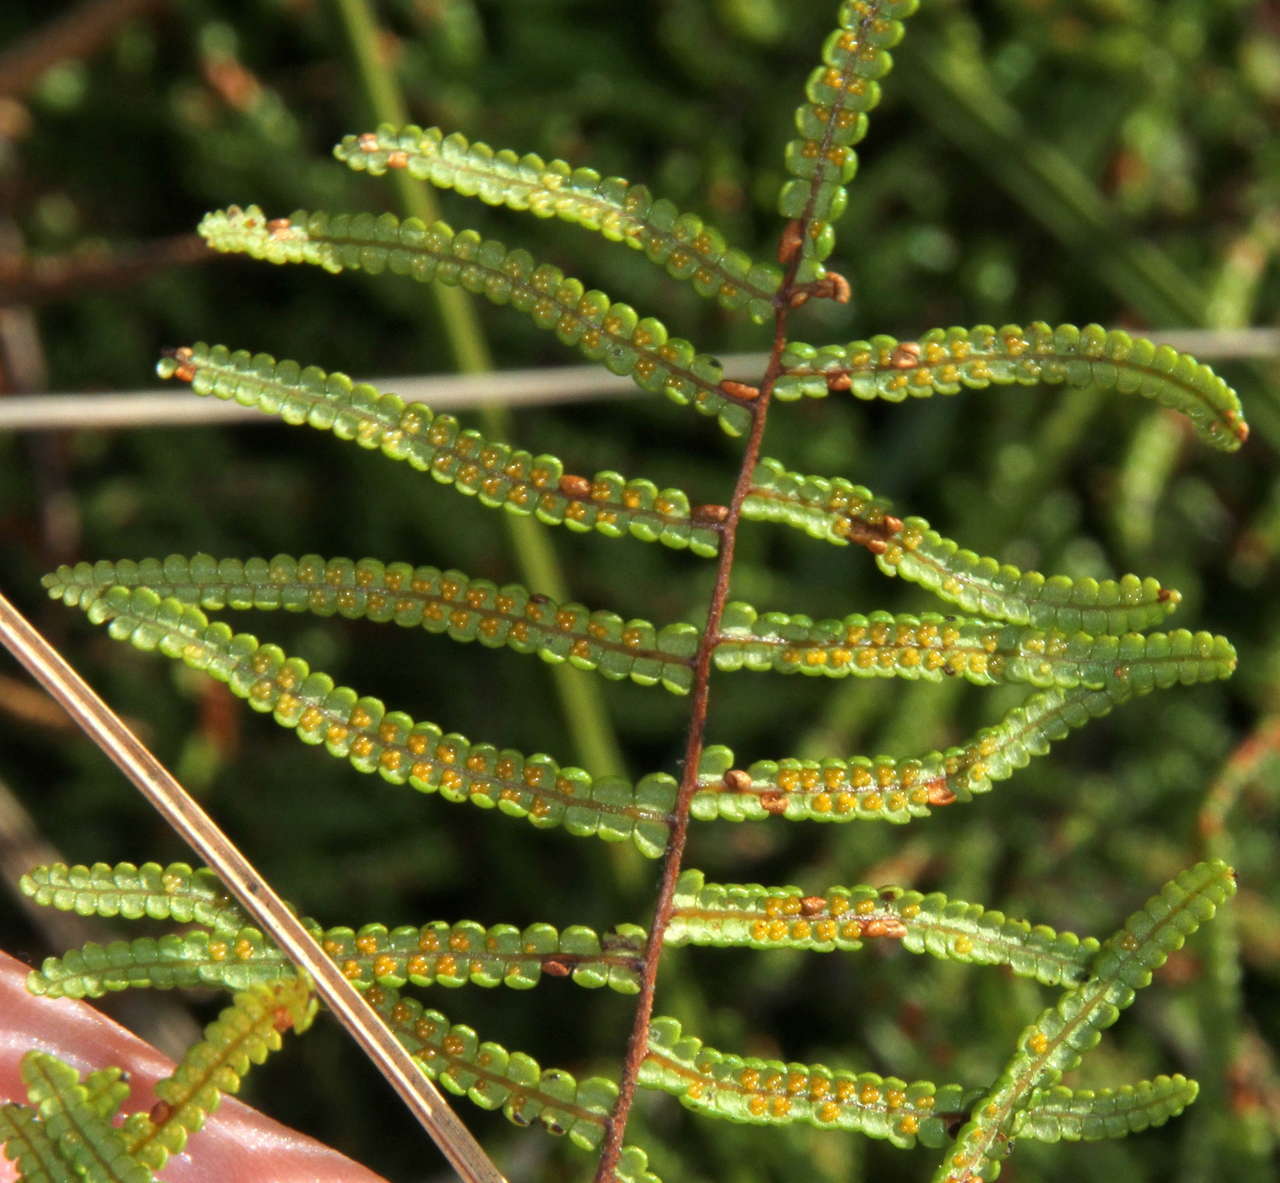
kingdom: Plantae
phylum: Tracheophyta
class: Polypodiopsida
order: Gleicheniales
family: Gleicheniaceae
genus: Gleichenia
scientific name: Gleichenia microphylla
